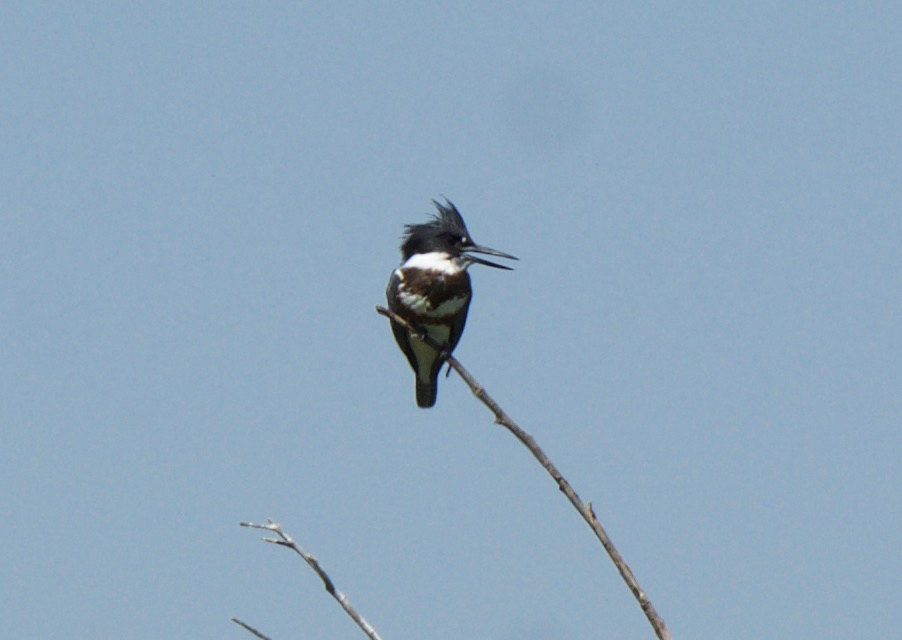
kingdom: Animalia
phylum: Chordata
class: Aves
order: Coraciiformes
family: Alcedinidae
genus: Megaceryle
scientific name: Megaceryle alcyon
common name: Belted kingfisher
